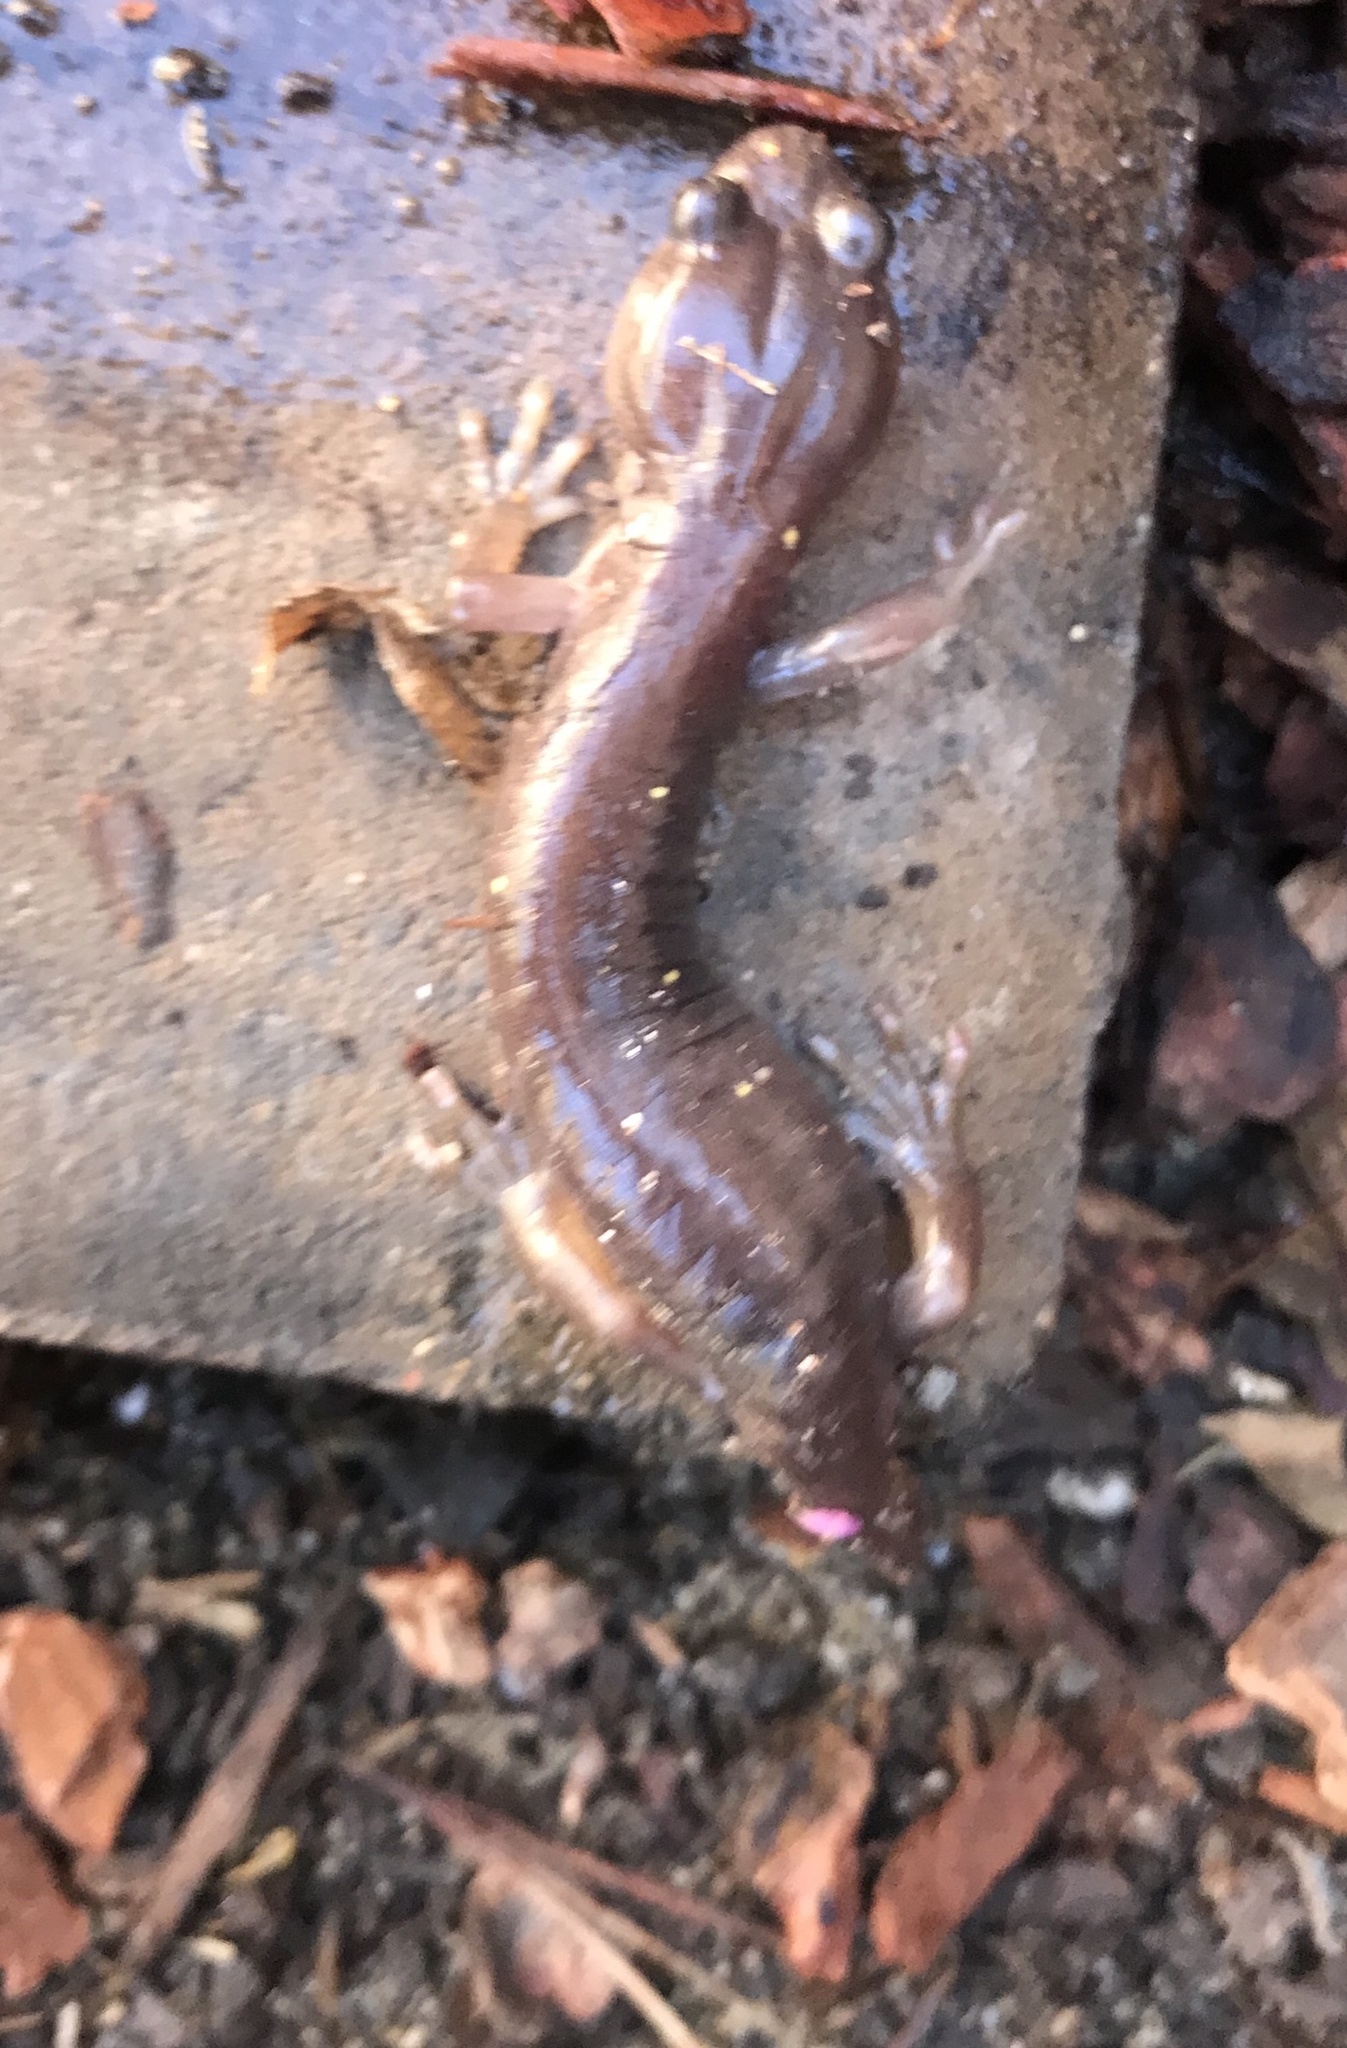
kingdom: Animalia
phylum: Chordata
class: Amphibia
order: Caudata
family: Plethodontidae
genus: Aneides
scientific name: Aneides lugubris
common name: Arboreal salamander
